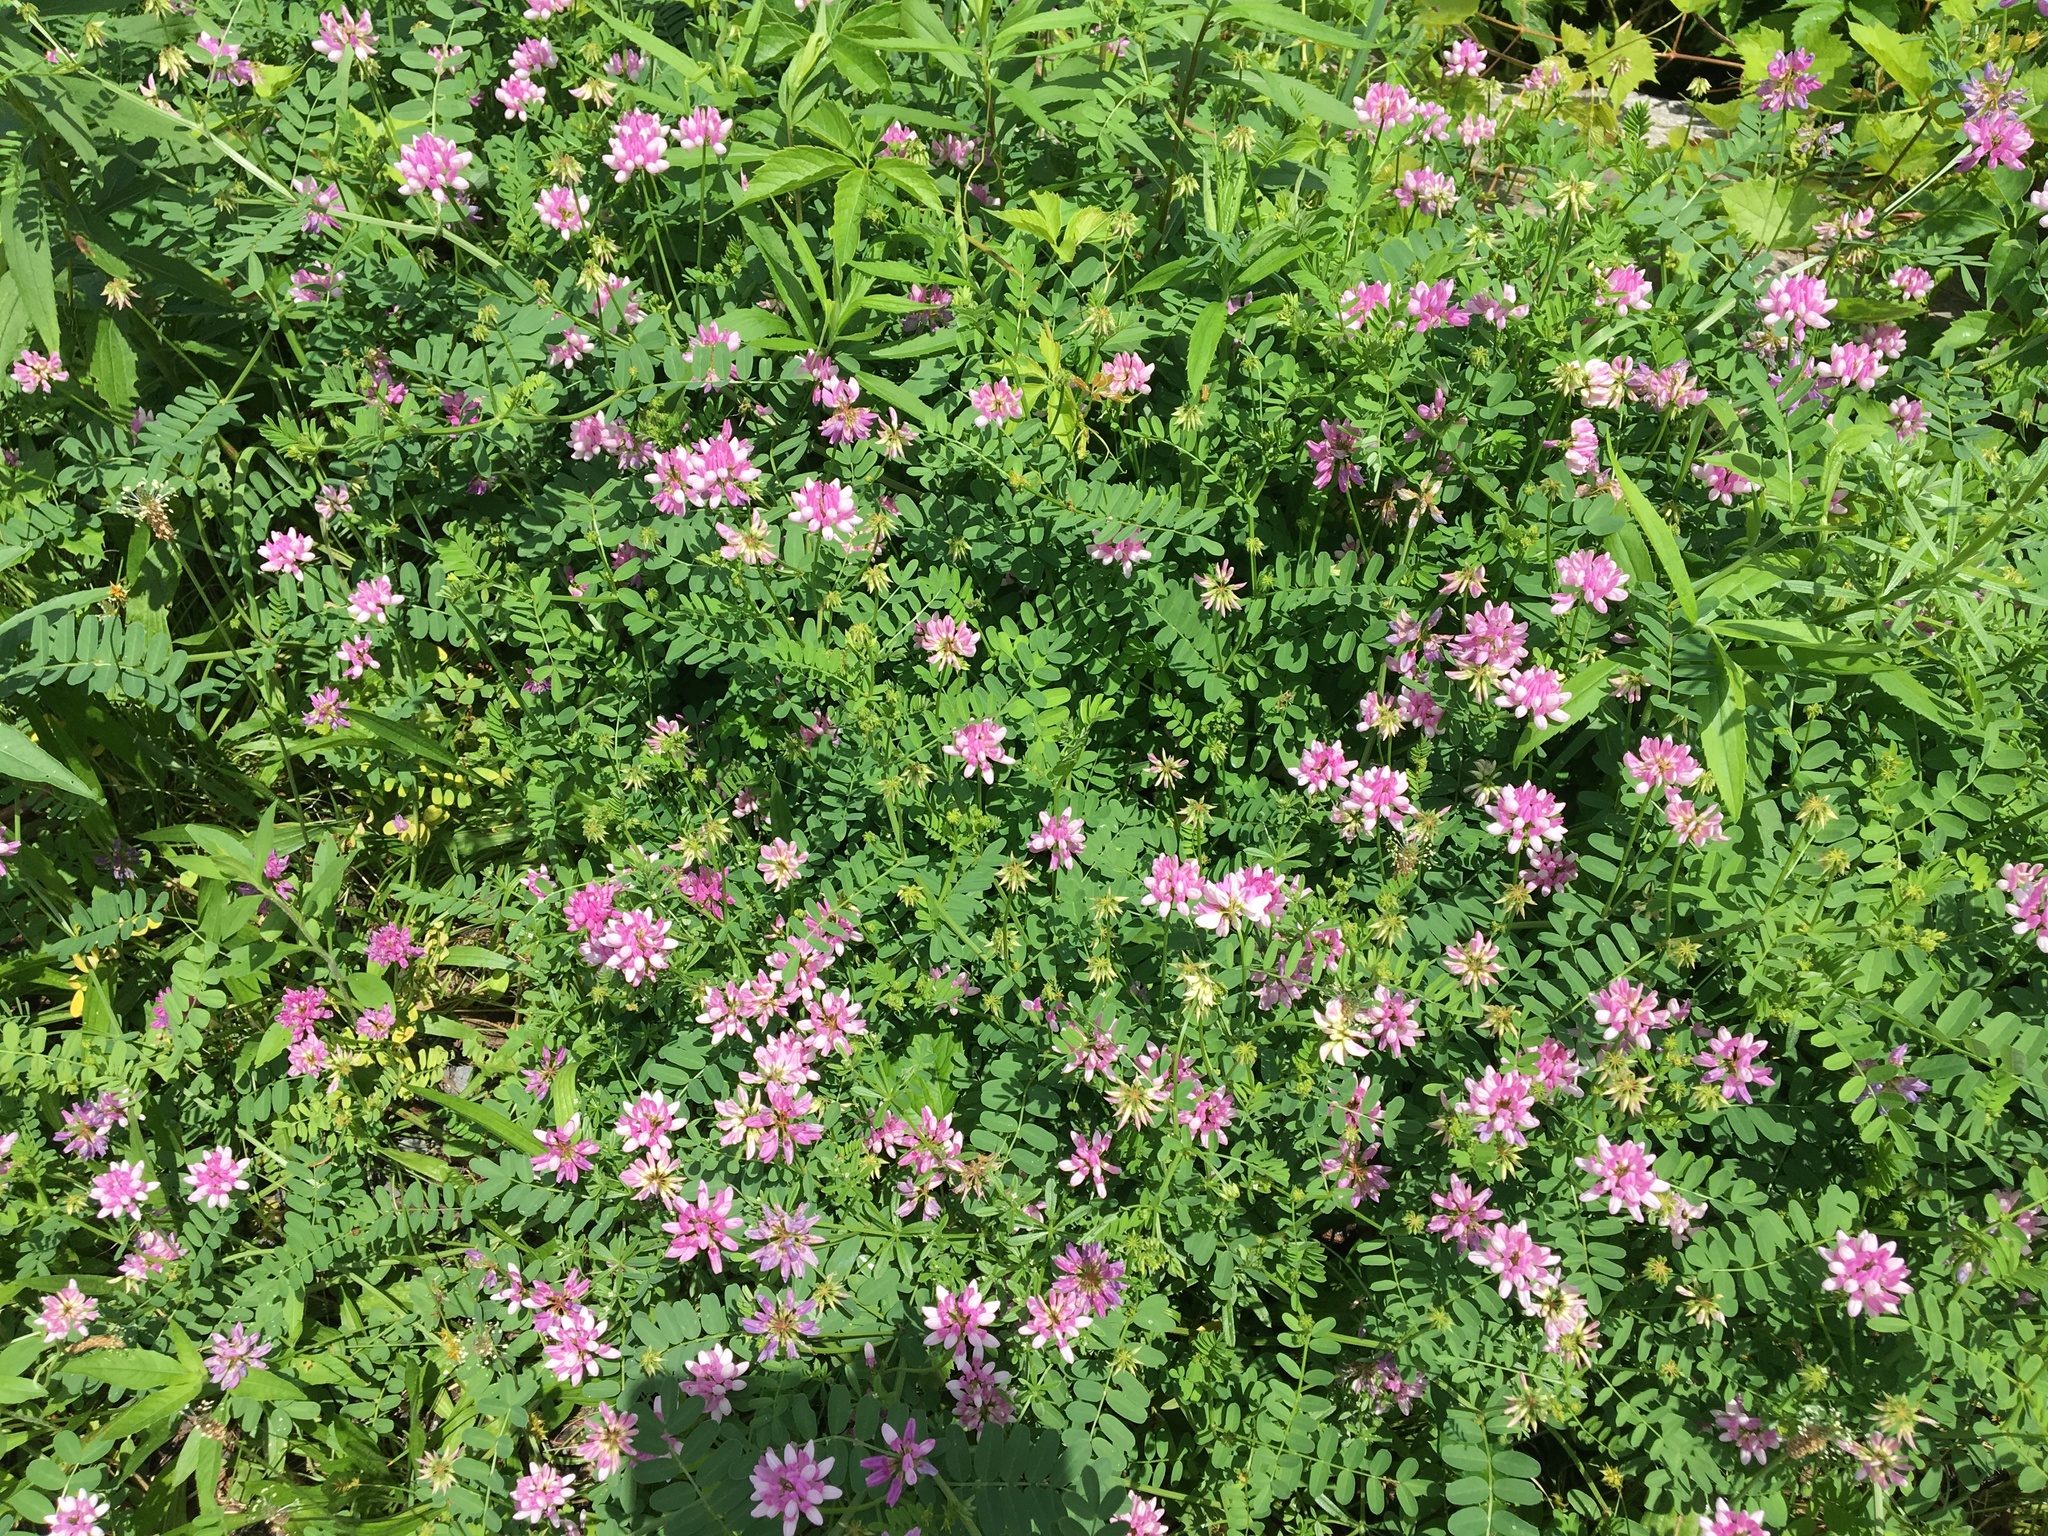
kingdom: Plantae
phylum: Tracheophyta
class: Magnoliopsida
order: Fabales
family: Fabaceae
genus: Coronilla
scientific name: Coronilla varia
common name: Crownvetch
